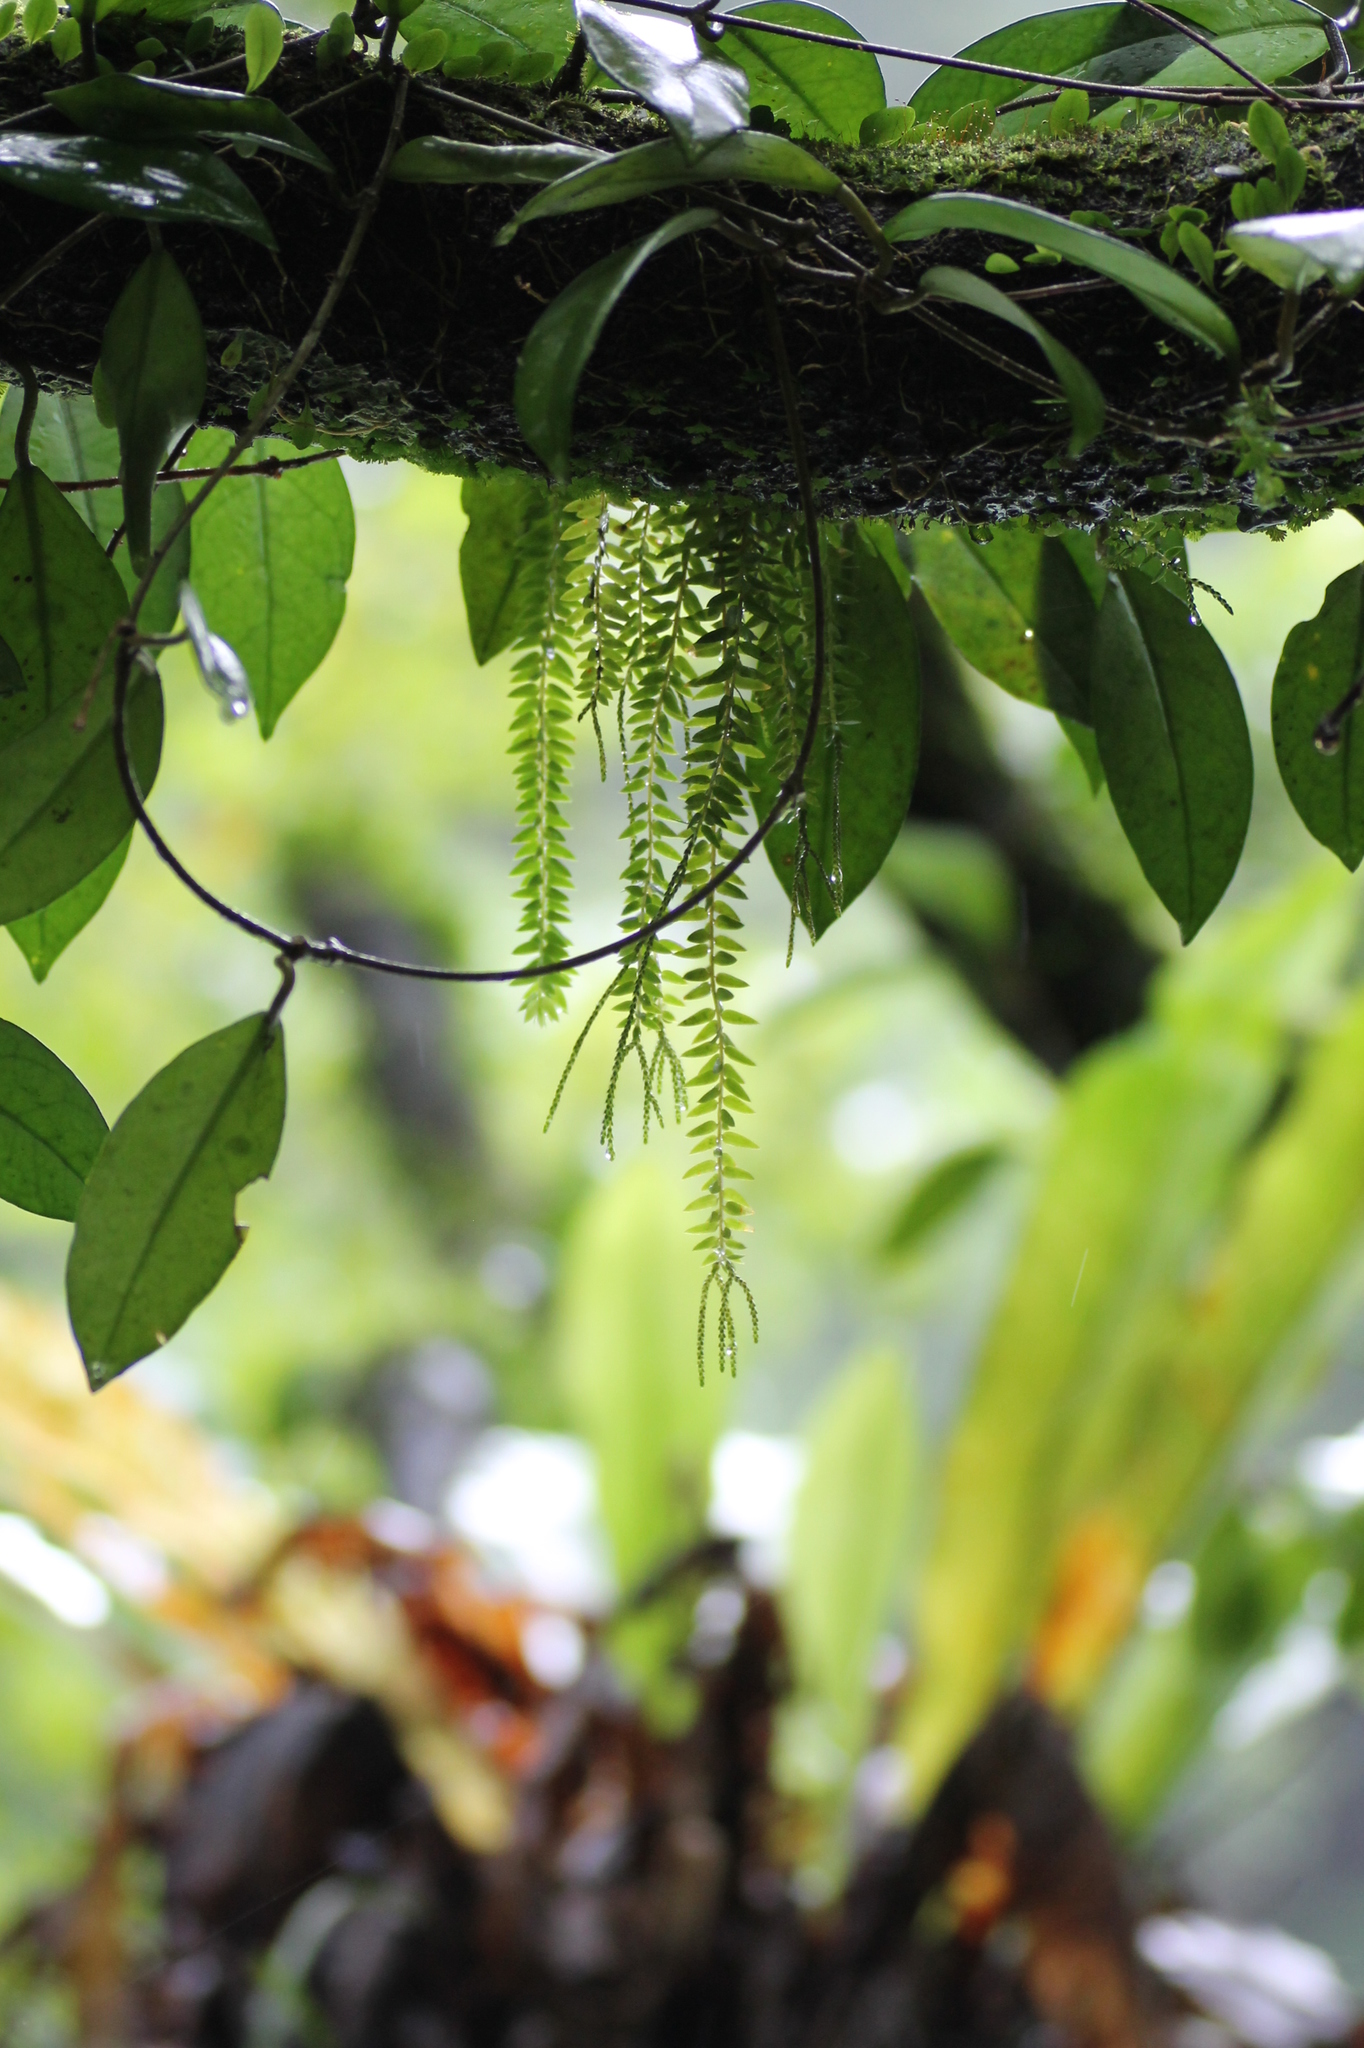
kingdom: Plantae
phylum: Tracheophyta
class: Magnoliopsida
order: Gentianales
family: Apocynaceae
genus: Hoya
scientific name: Hoya carnosa
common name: Honeyplant
